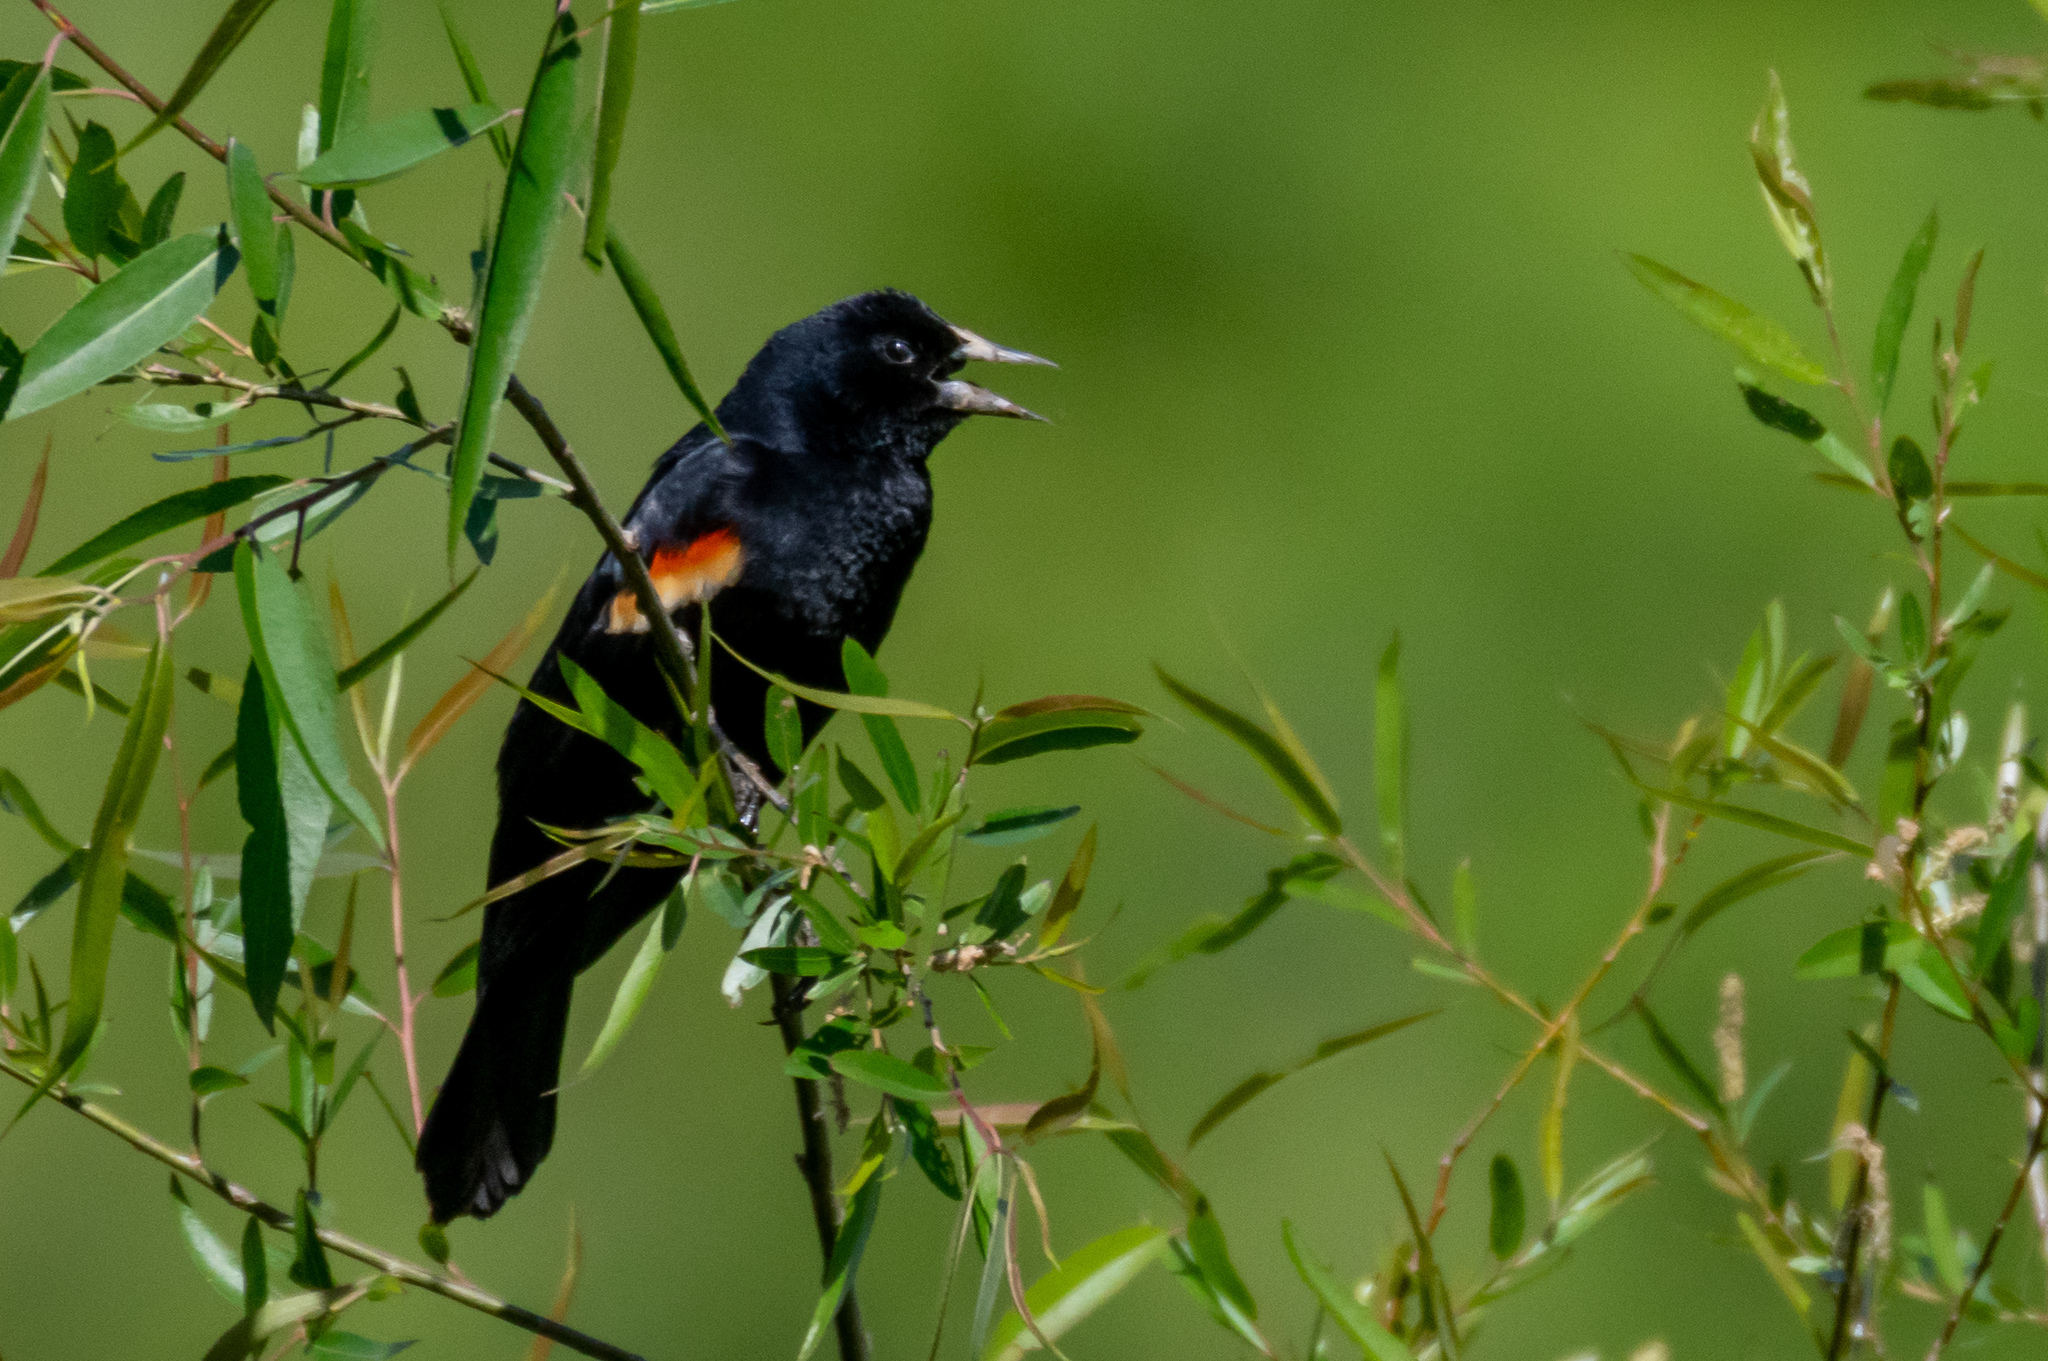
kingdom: Animalia
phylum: Chordata
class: Aves
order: Passeriformes
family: Icteridae
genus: Agelaius
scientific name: Agelaius phoeniceus
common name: Red-winged blackbird
